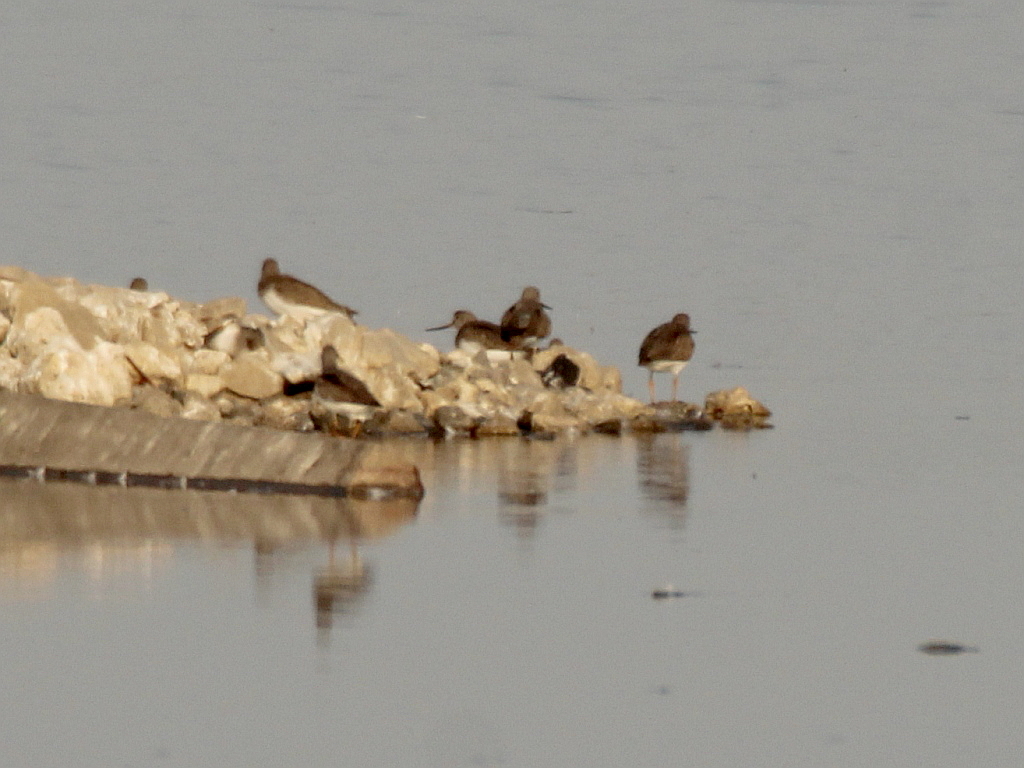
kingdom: Animalia
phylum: Chordata
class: Aves
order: Charadriiformes
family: Scolopacidae
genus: Xenus
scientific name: Xenus cinereus
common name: Terek sandpiper
